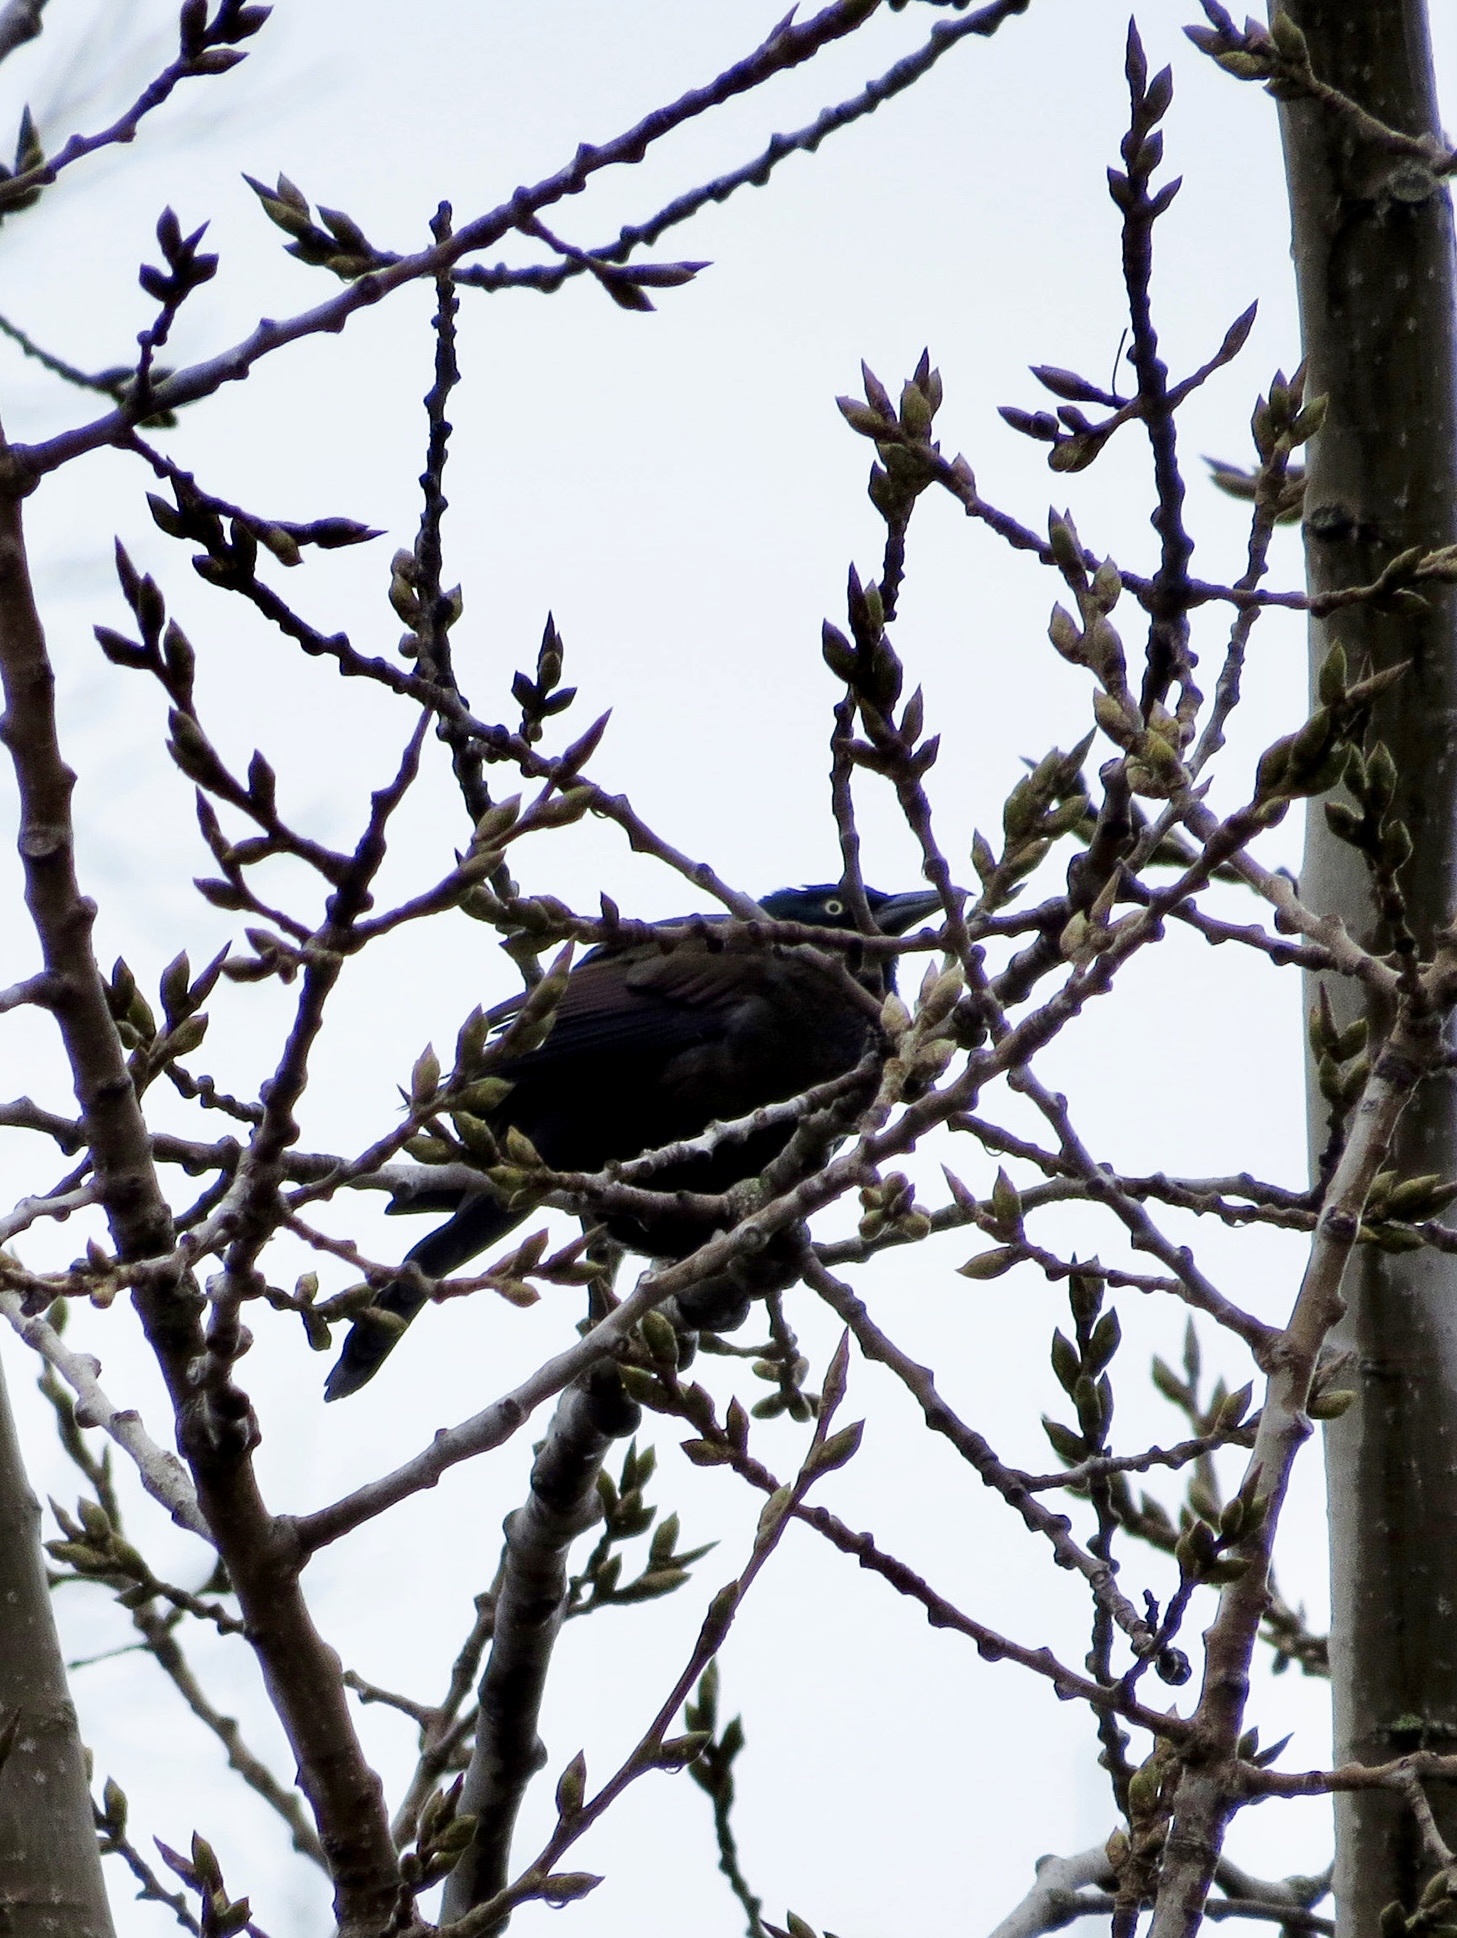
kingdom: Animalia
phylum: Chordata
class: Aves
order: Passeriformes
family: Icteridae
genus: Quiscalus
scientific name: Quiscalus quiscula
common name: Common grackle
